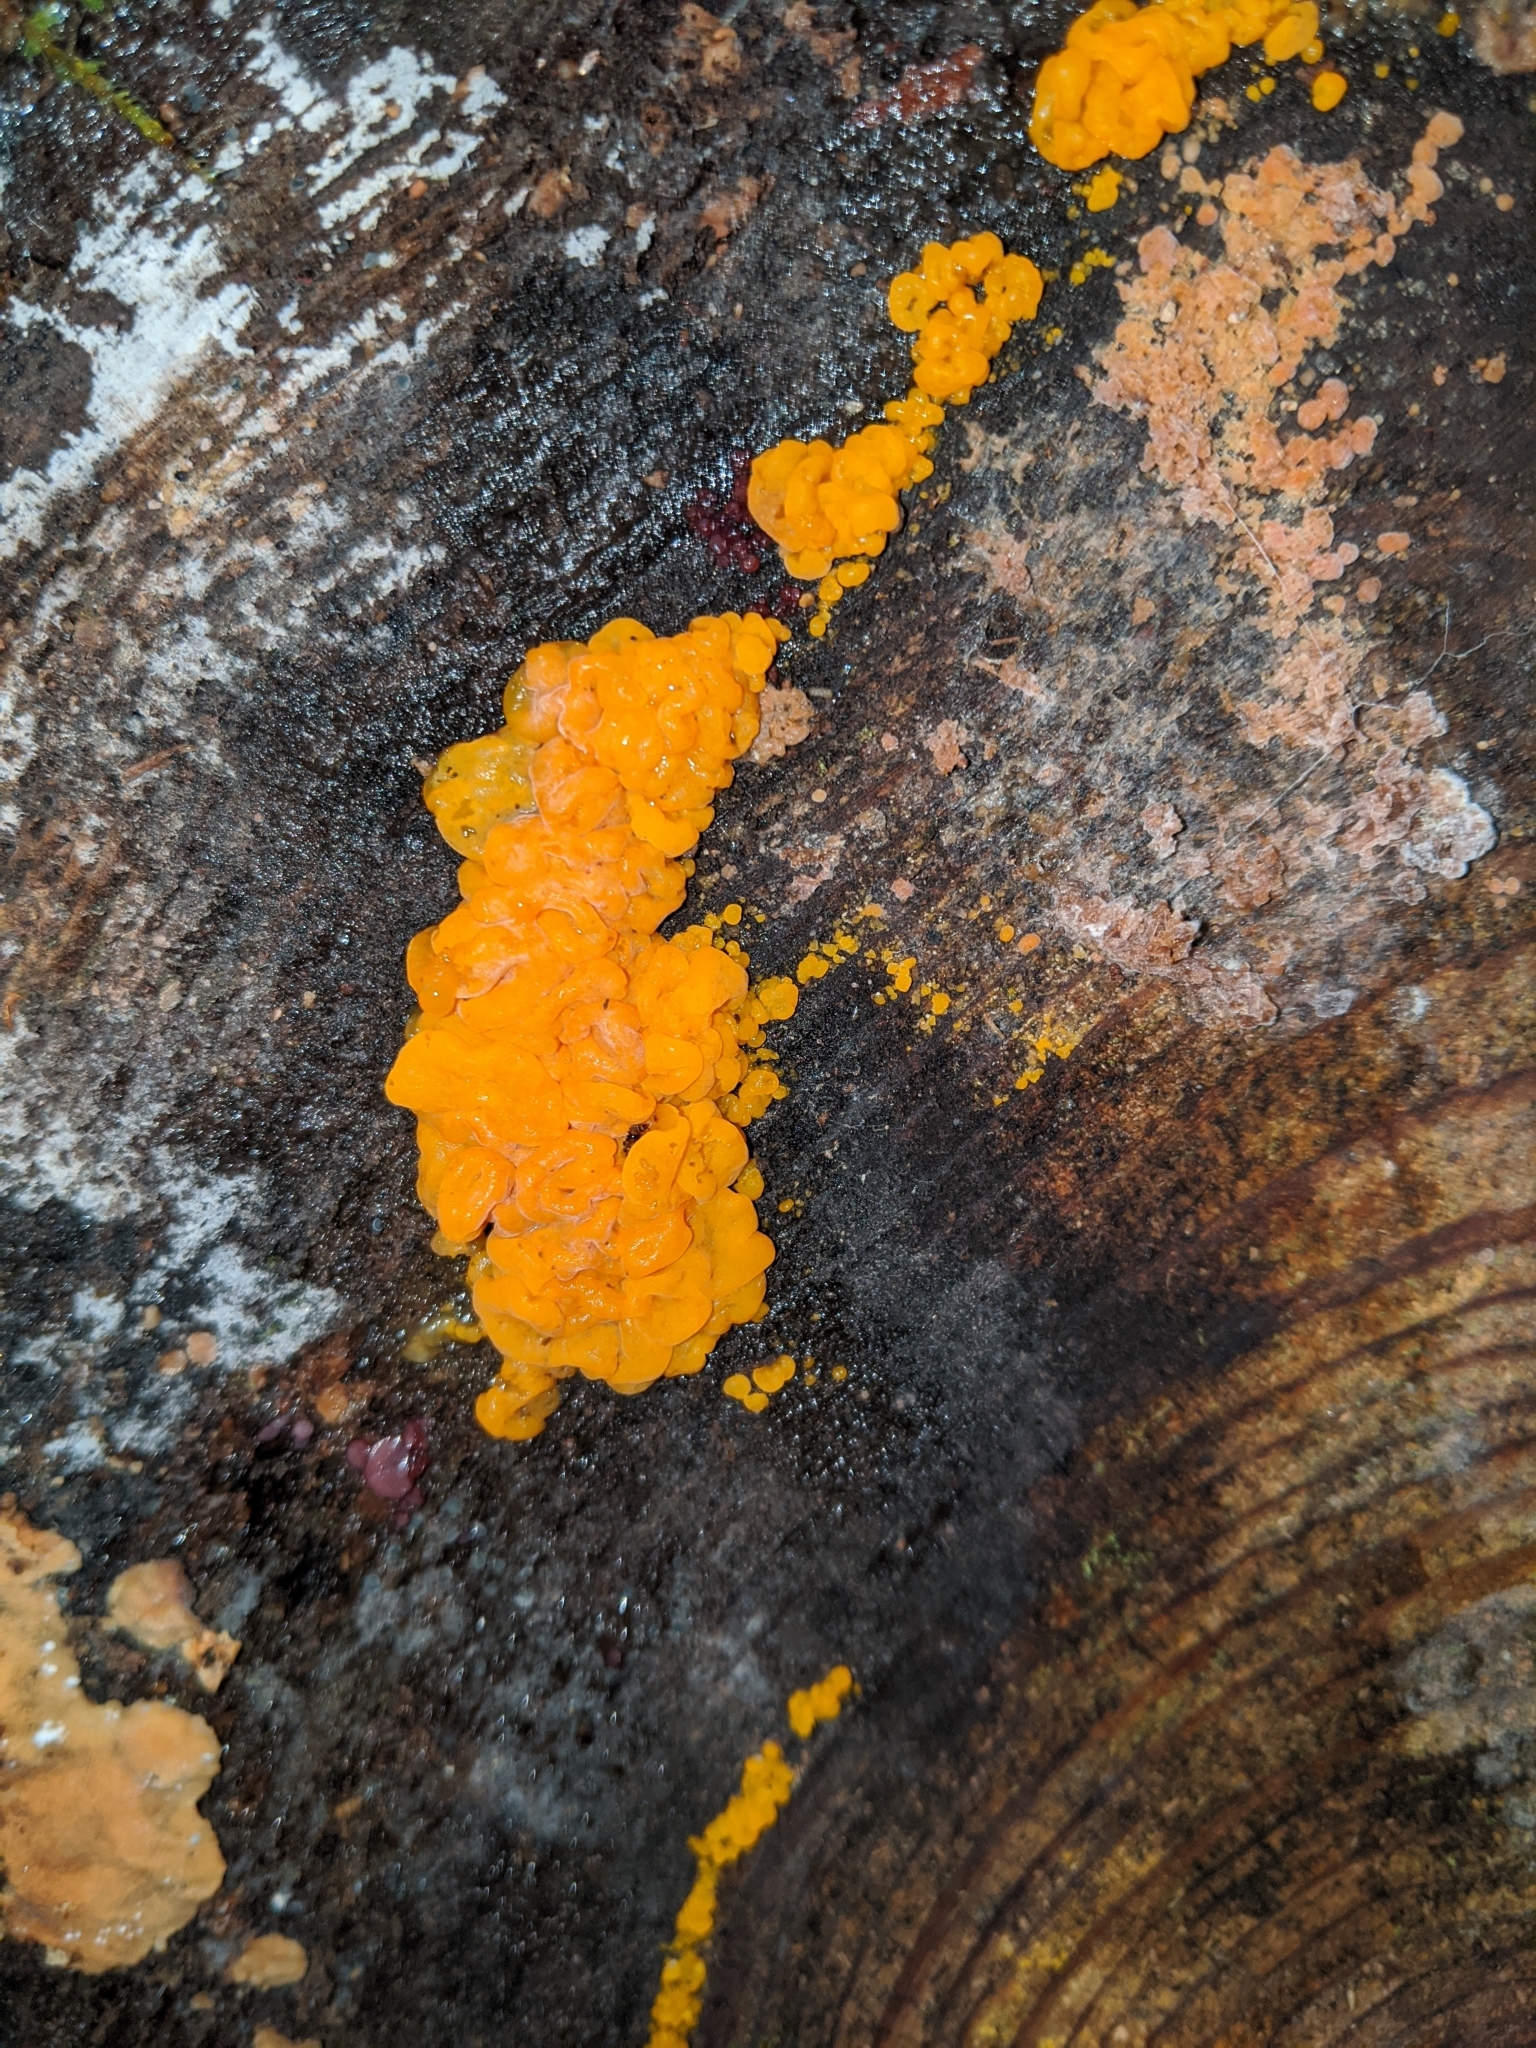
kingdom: Fungi
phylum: Basidiomycota
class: Dacrymycetes
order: Dacrymycetales
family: Dacrymycetaceae
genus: Dacrymyces
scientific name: Dacrymyces chrysospermus
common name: Orange jelly spot
